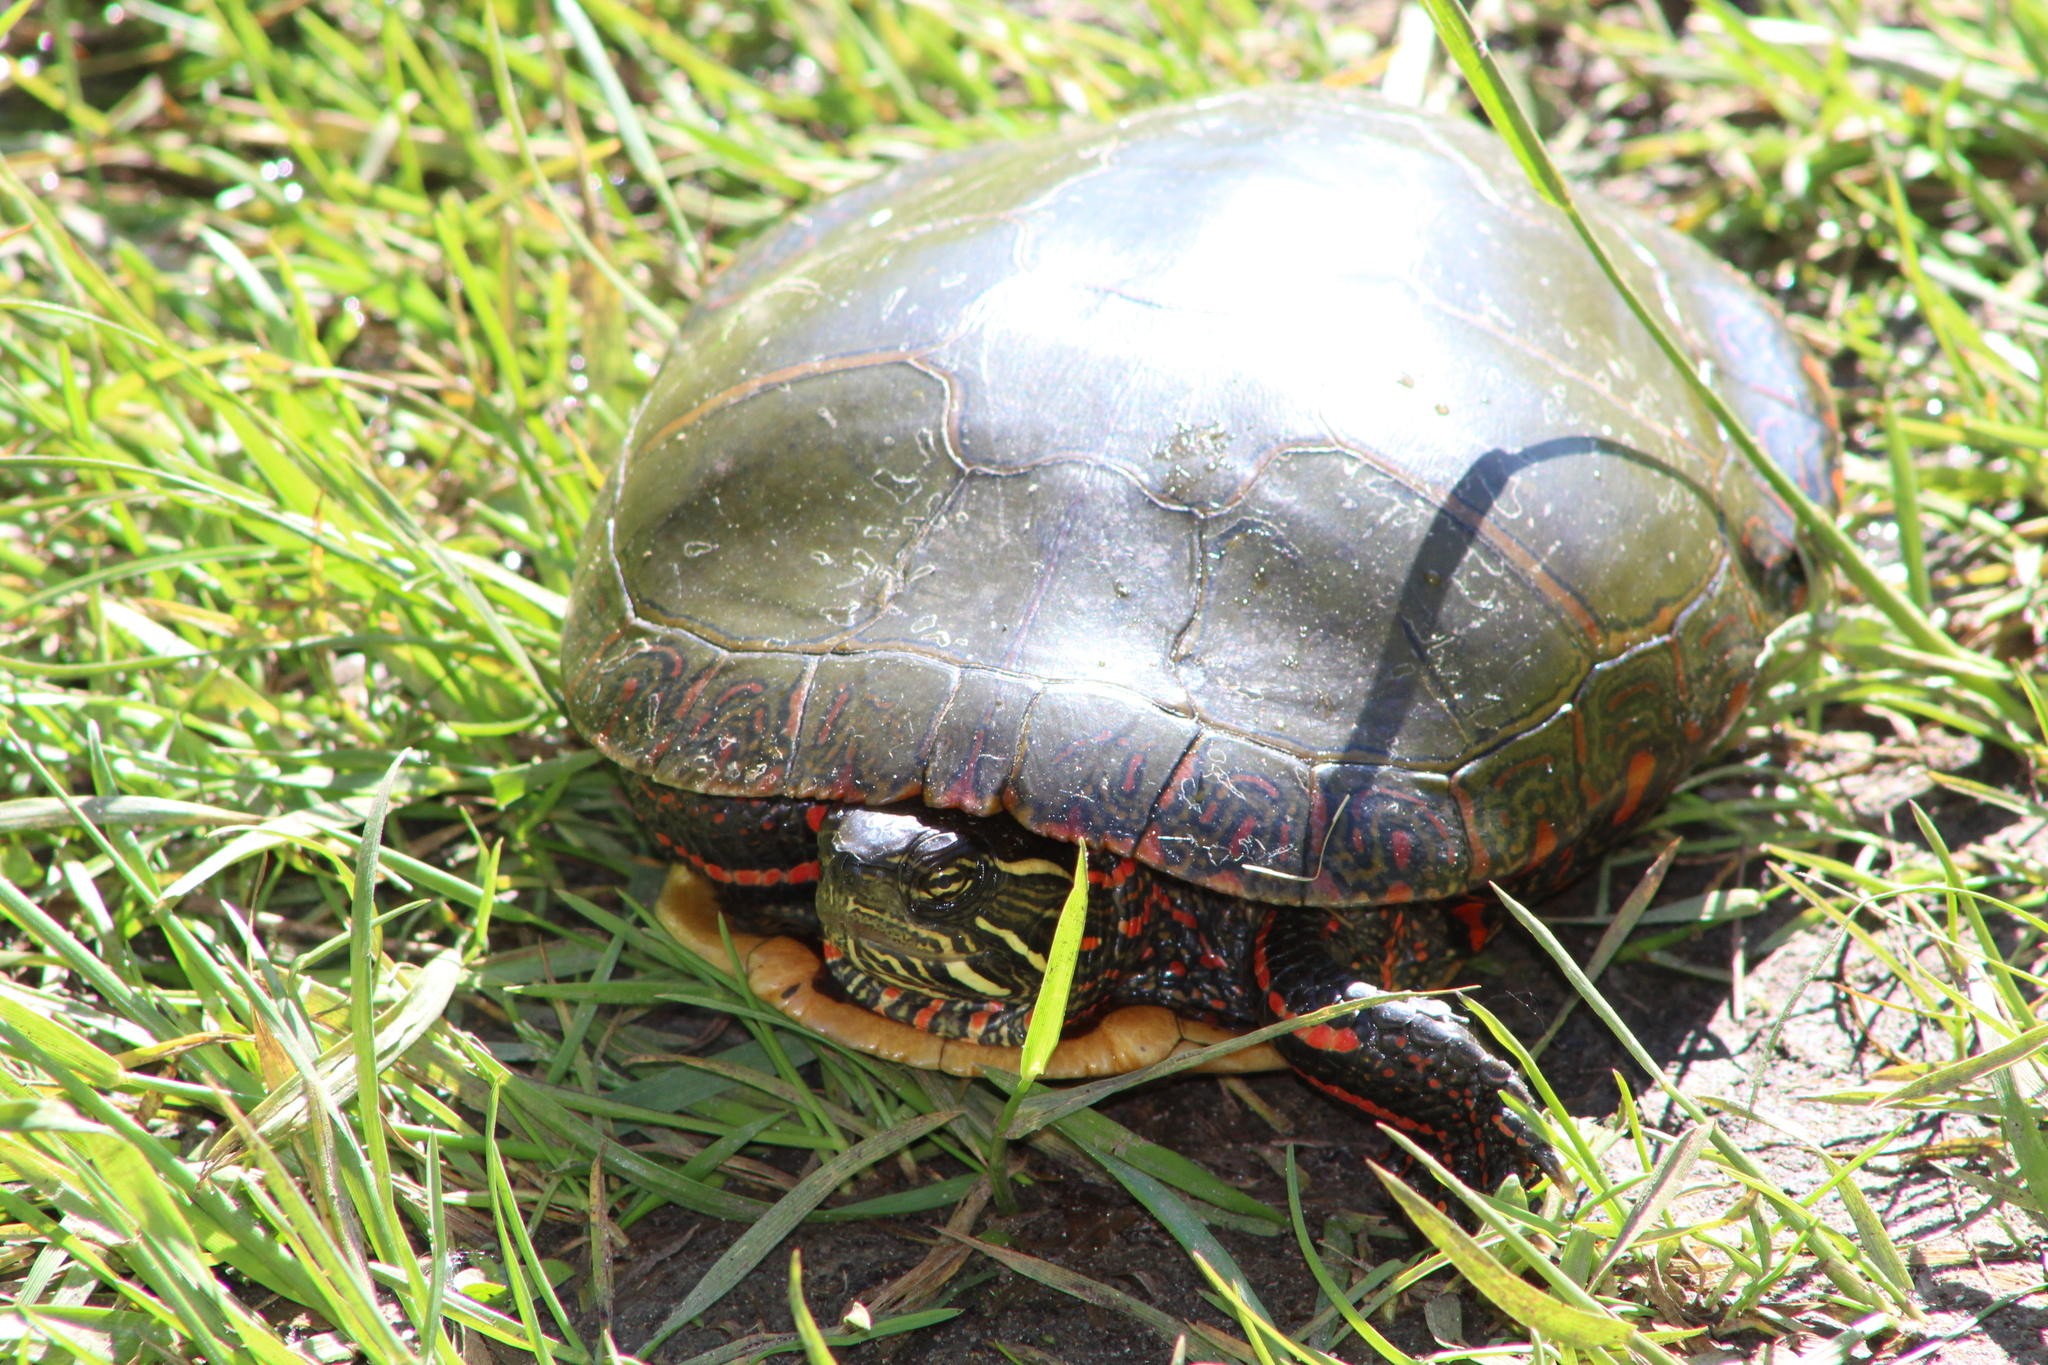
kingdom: Animalia
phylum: Chordata
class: Testudines
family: Emydidae
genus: Chrysemys
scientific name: Chrysemys picta
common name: Painted turtle
